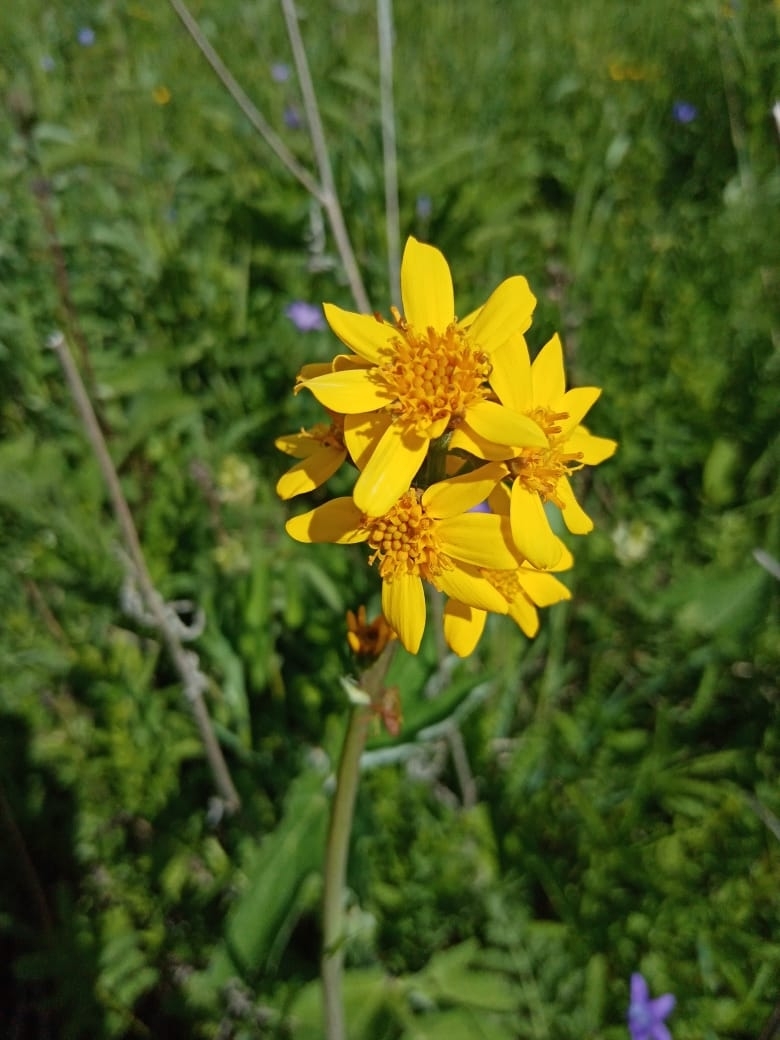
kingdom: Plantae
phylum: Tracheophyta
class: Magnoliopsida
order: Asterales
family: Asteraceae
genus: Ligularia
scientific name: Ligularia glauca
